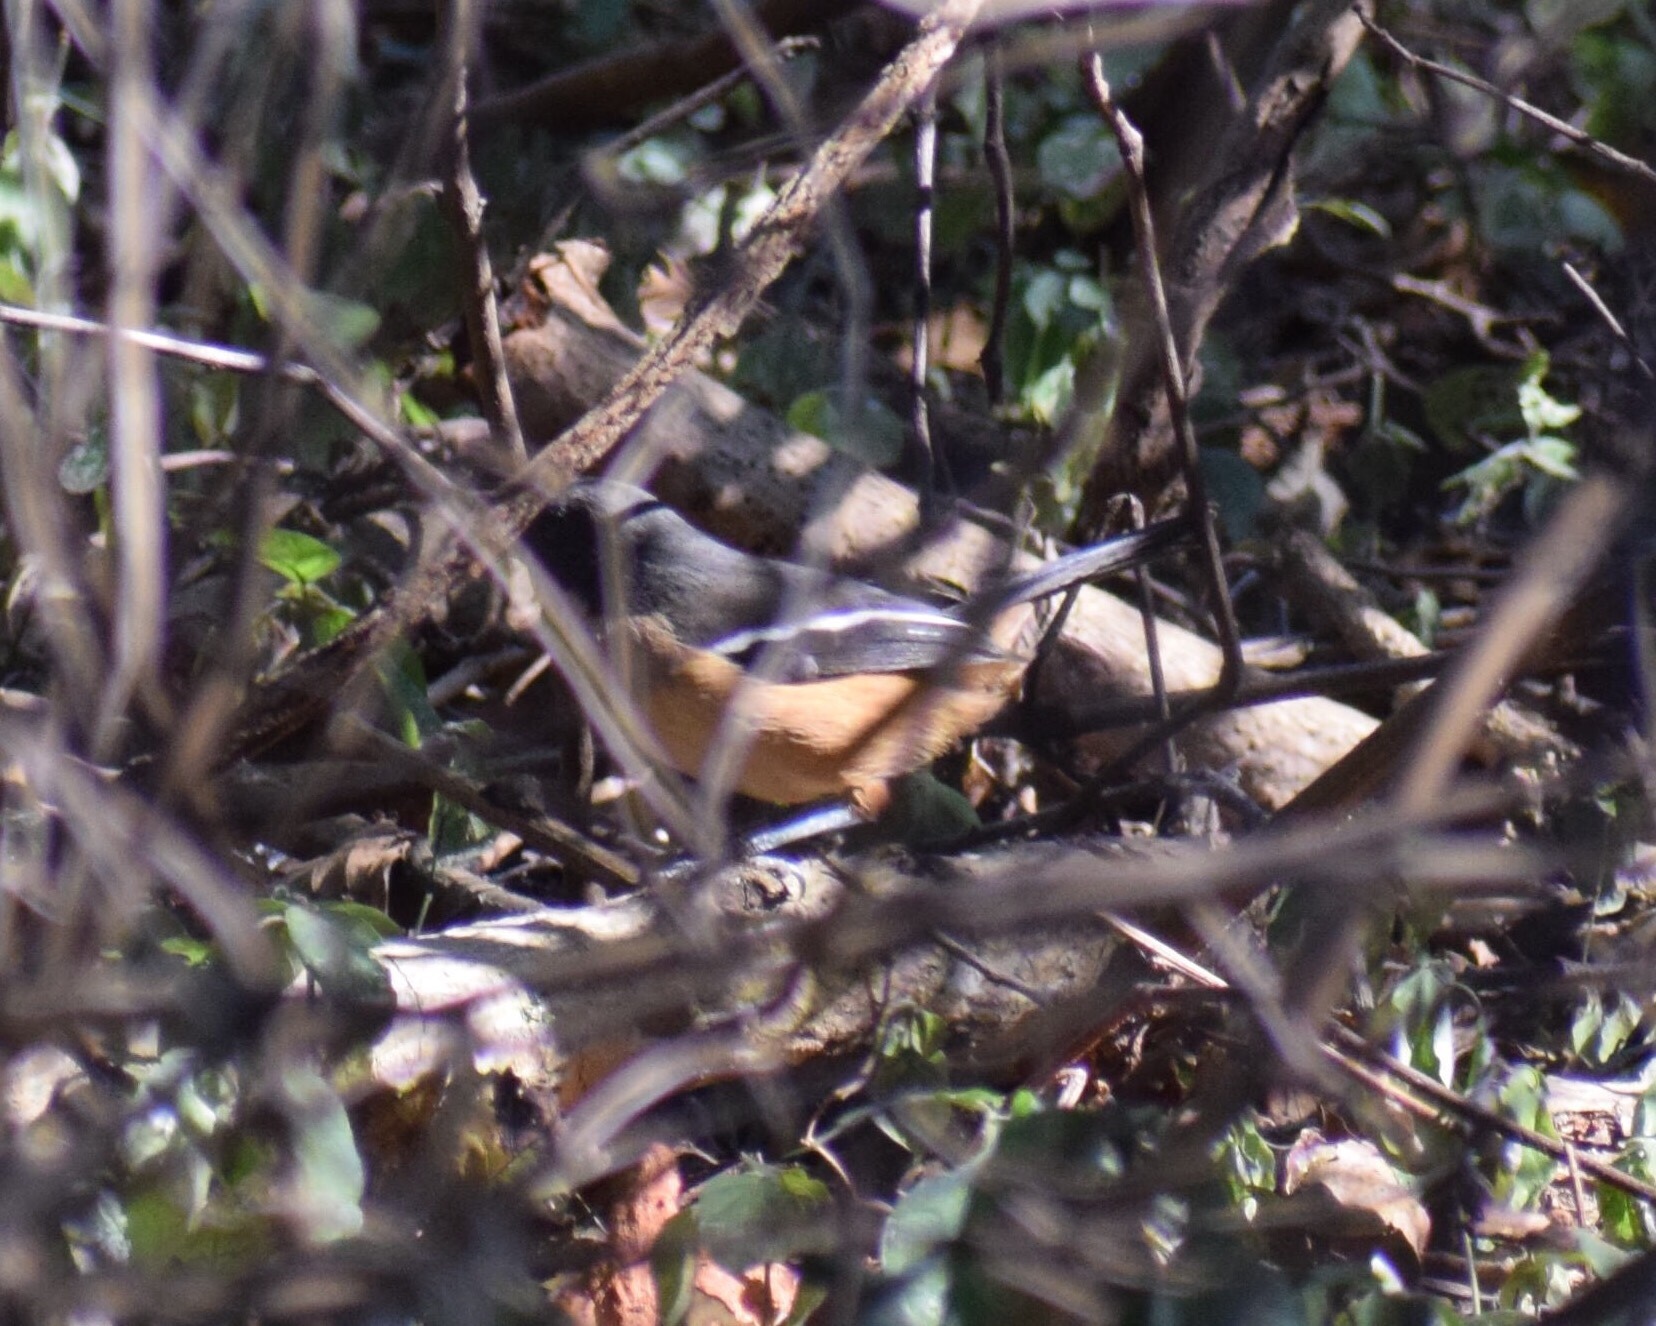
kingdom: Animalia
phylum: Chordata
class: Aves
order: Passeriformes
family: Malaconotidae
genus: Laniarius
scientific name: Laniarius ferrugineus
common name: Southern boubou
